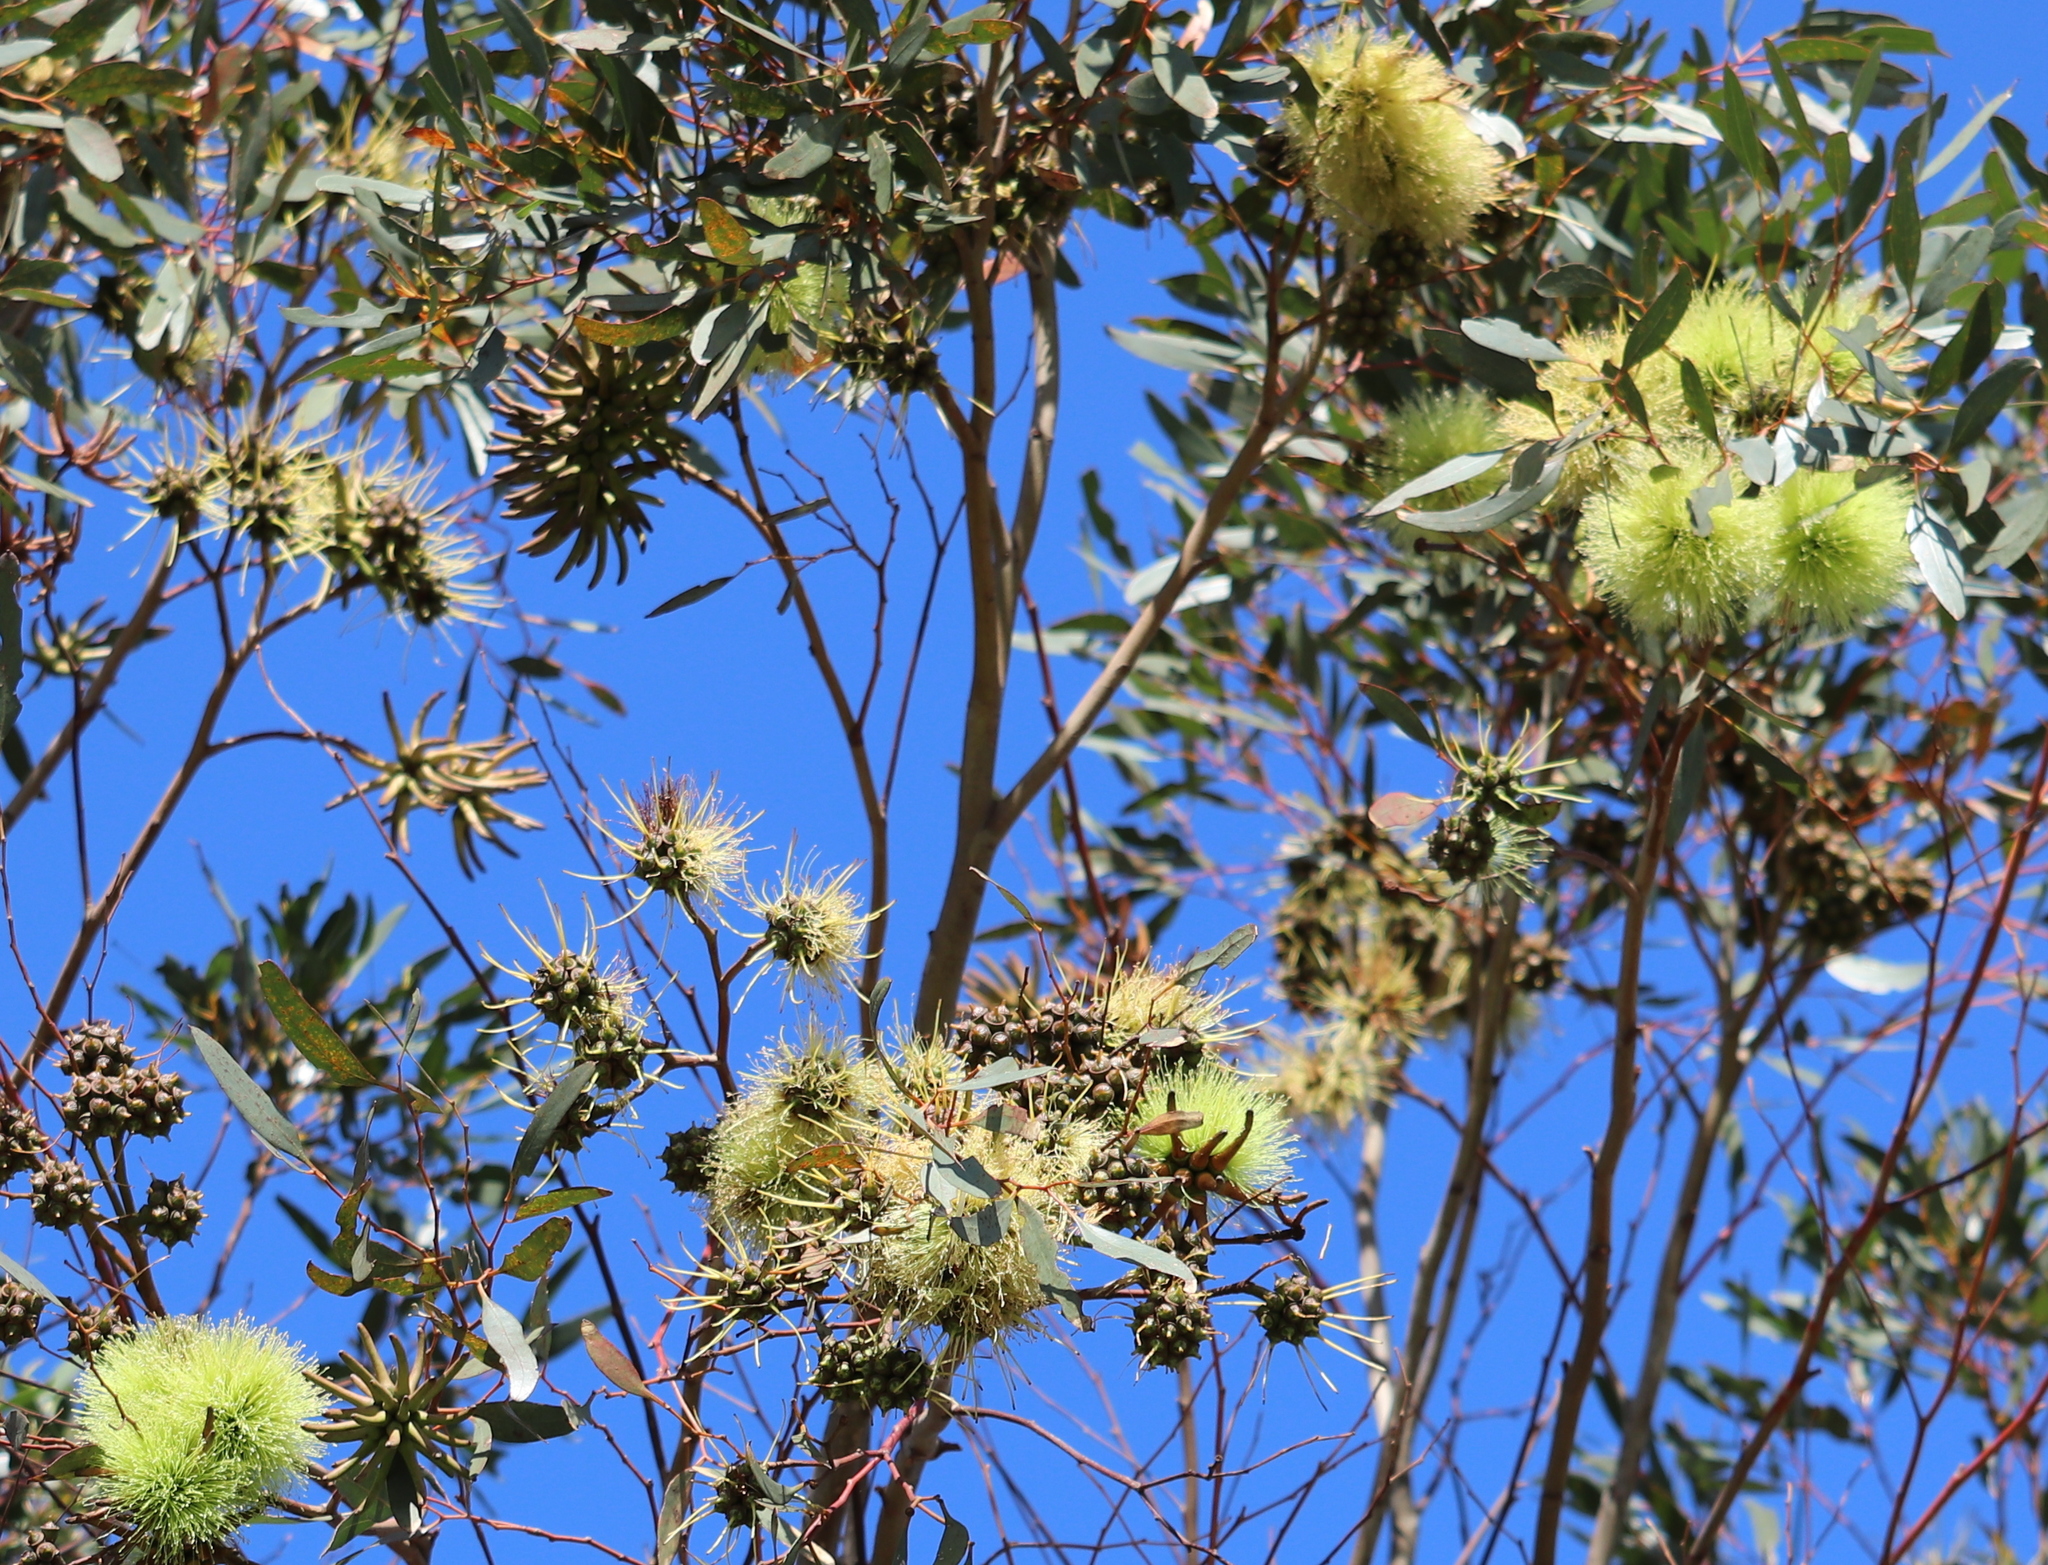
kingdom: Plantae
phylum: Tracheophyta
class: Magnoliopsida
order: Myrtales
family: Myrtaceae
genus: Eucalyptus
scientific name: Eucalyptus conferruminata
